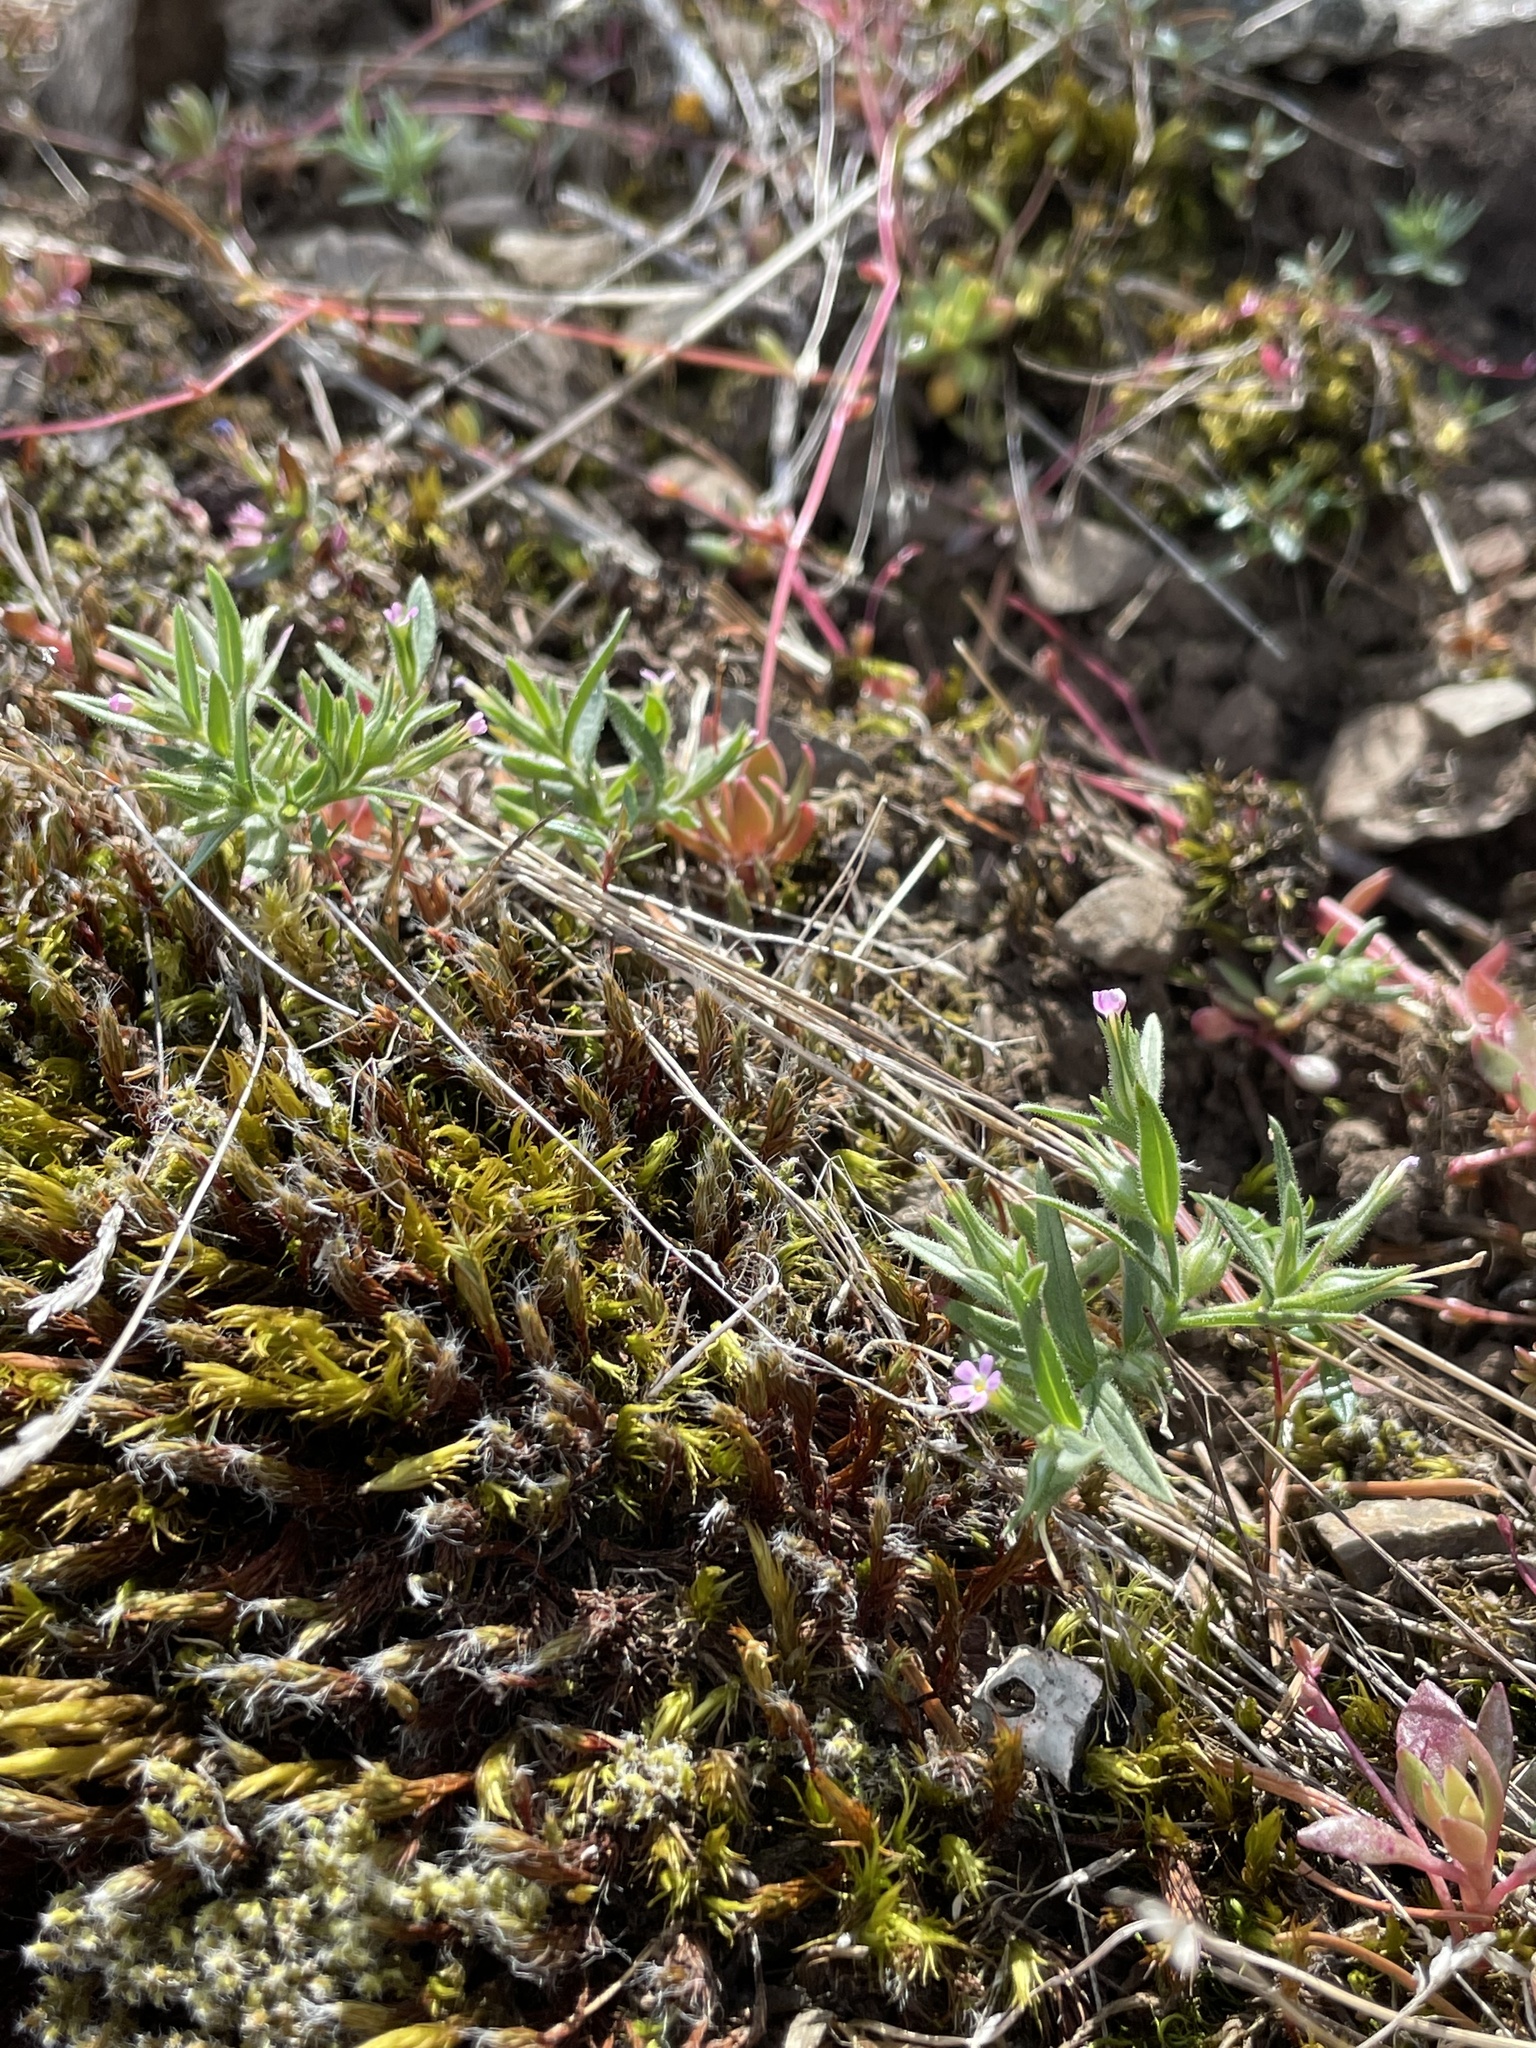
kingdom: Plantae
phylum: Tracheophyta
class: Magnoliopsida
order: Ericales
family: Polemoniaceae
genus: Phlox
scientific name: Phlox gracilis
